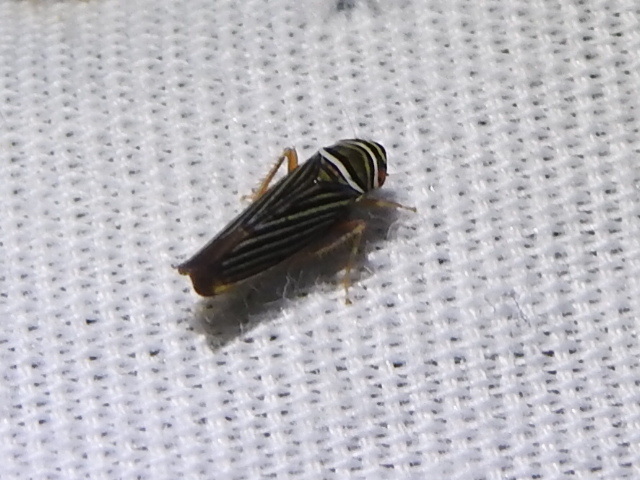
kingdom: Animalia
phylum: Arthropoda
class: Insecta
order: Hemiptera
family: Cicadellidae
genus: Tylozygus
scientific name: Tylozygus bifidus
